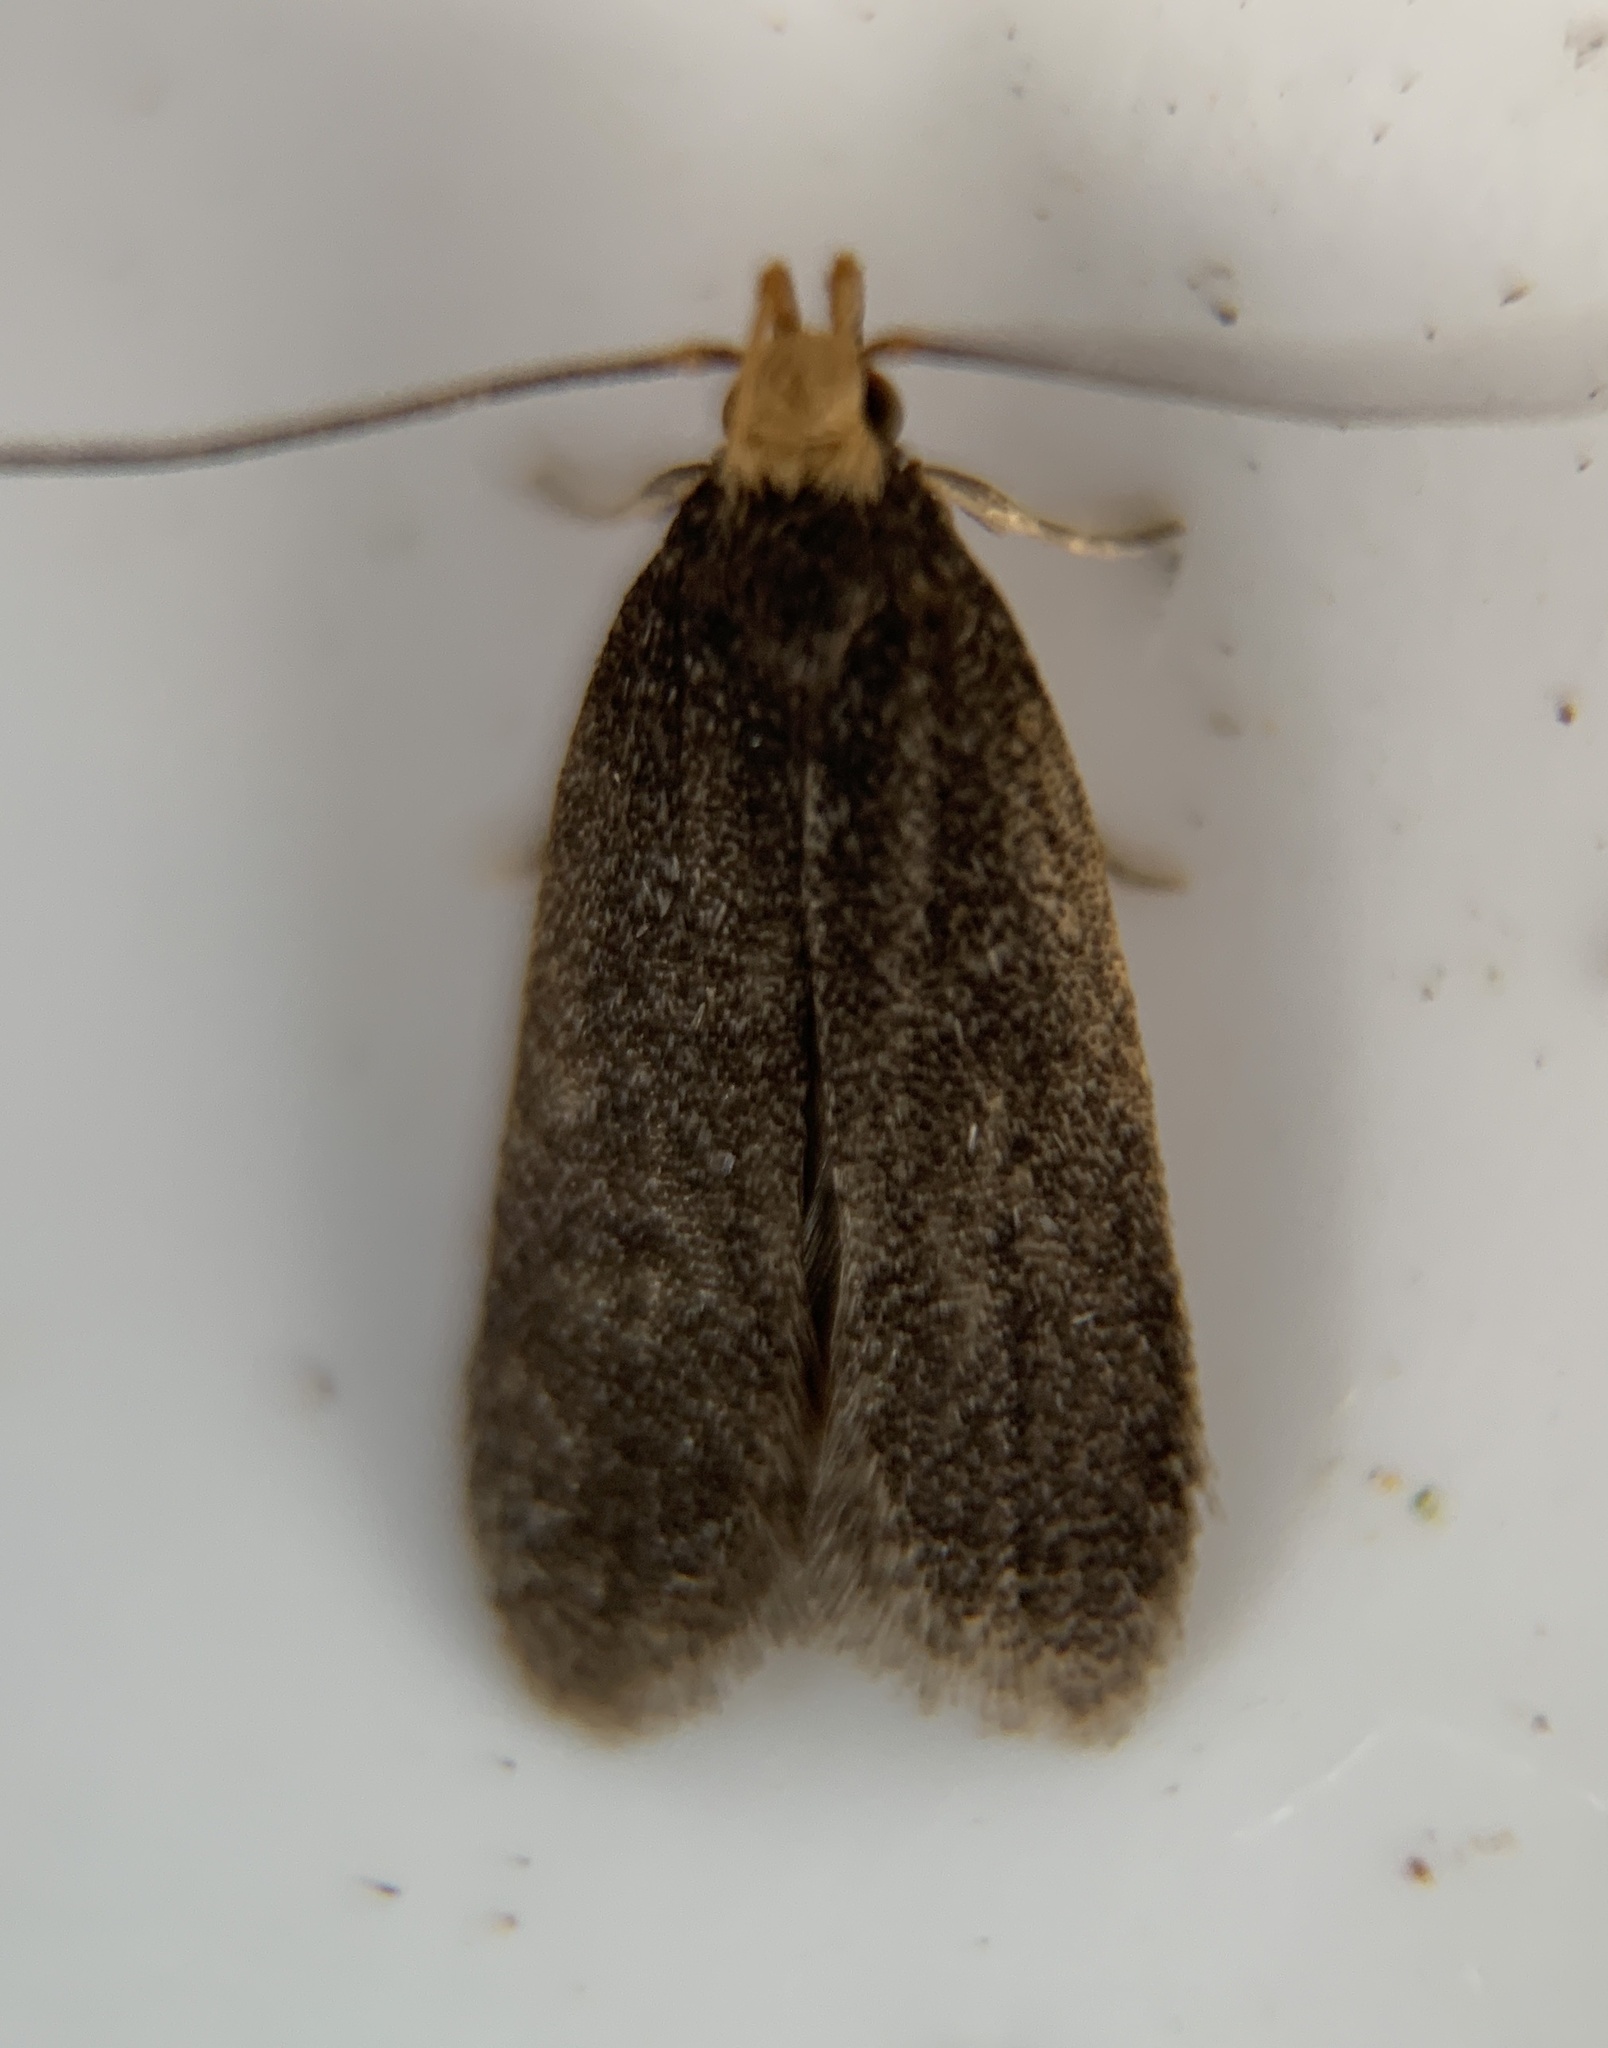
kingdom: Animalia
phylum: Arthropoda
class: Insecta
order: Lepidoptera
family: Autostichidae
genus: Glyphidocera
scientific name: Glyphidocera lithodoxa
